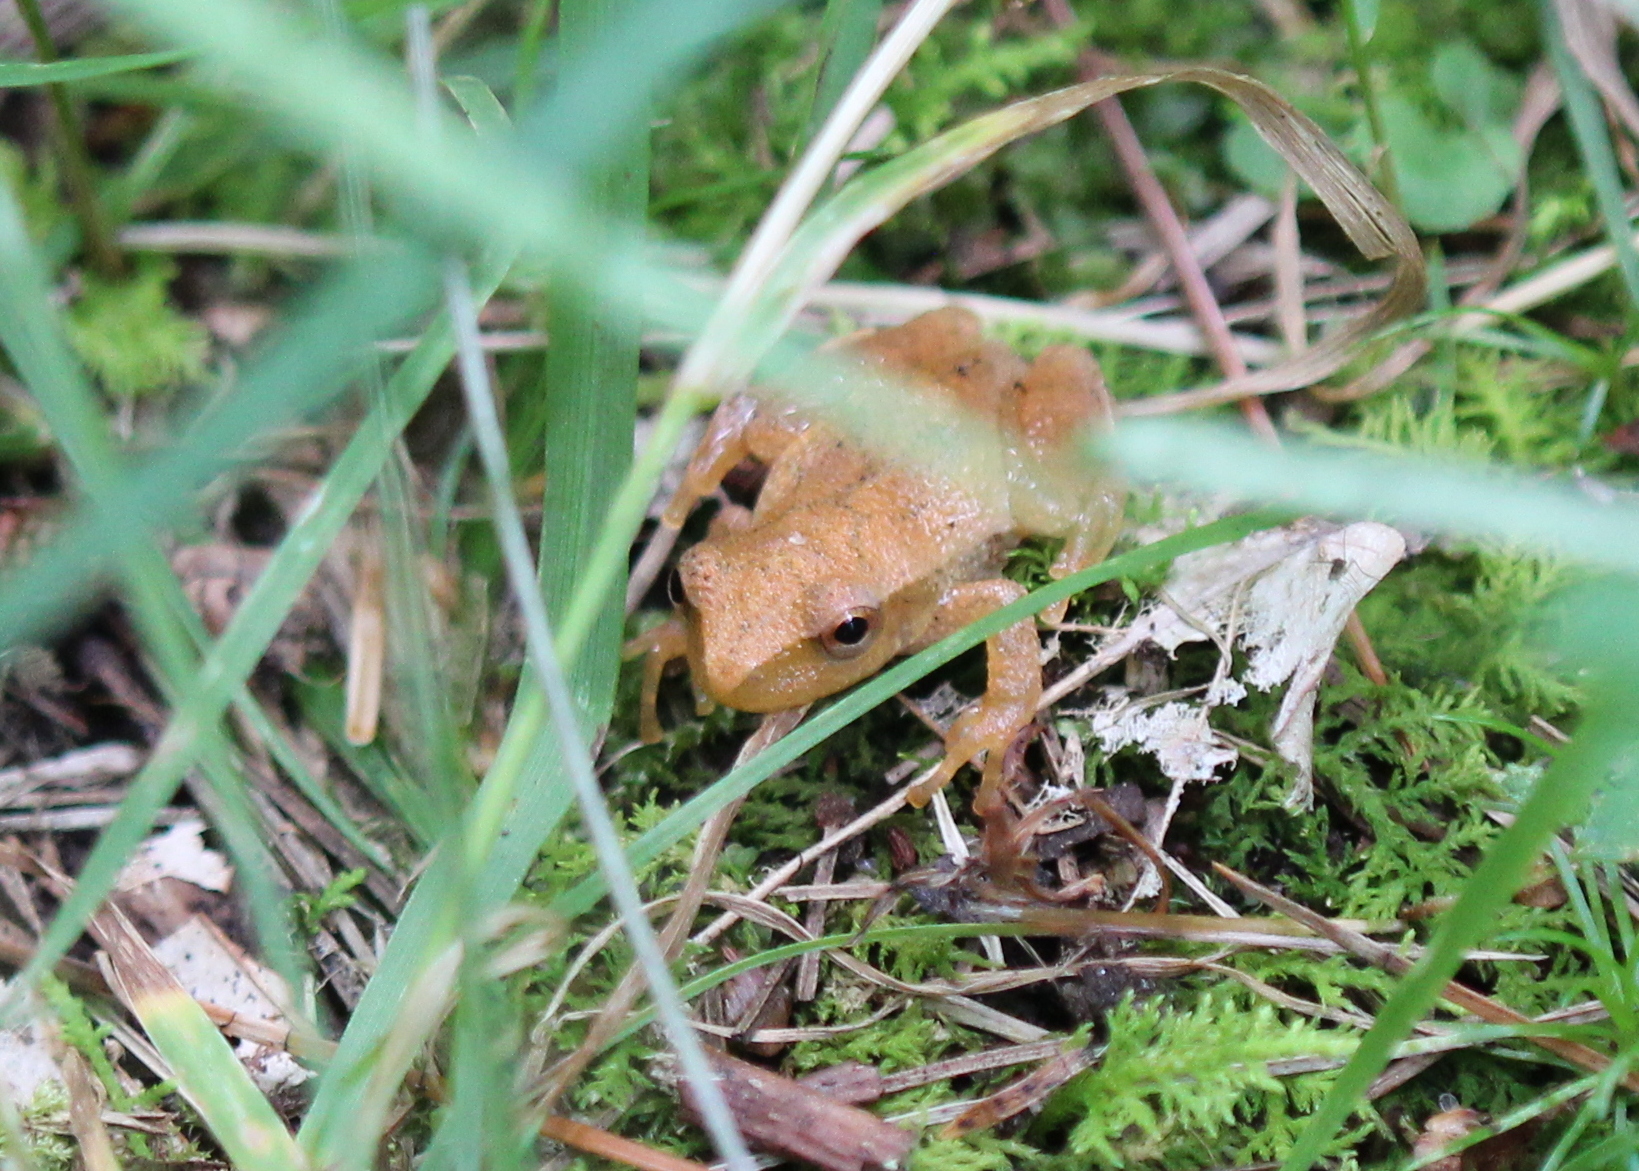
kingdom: Animalia
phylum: Chordata
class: Amphibia
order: Anura
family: Hylidae
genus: Pseudacris
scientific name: Pseudacris crucifer
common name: Spring peeper
